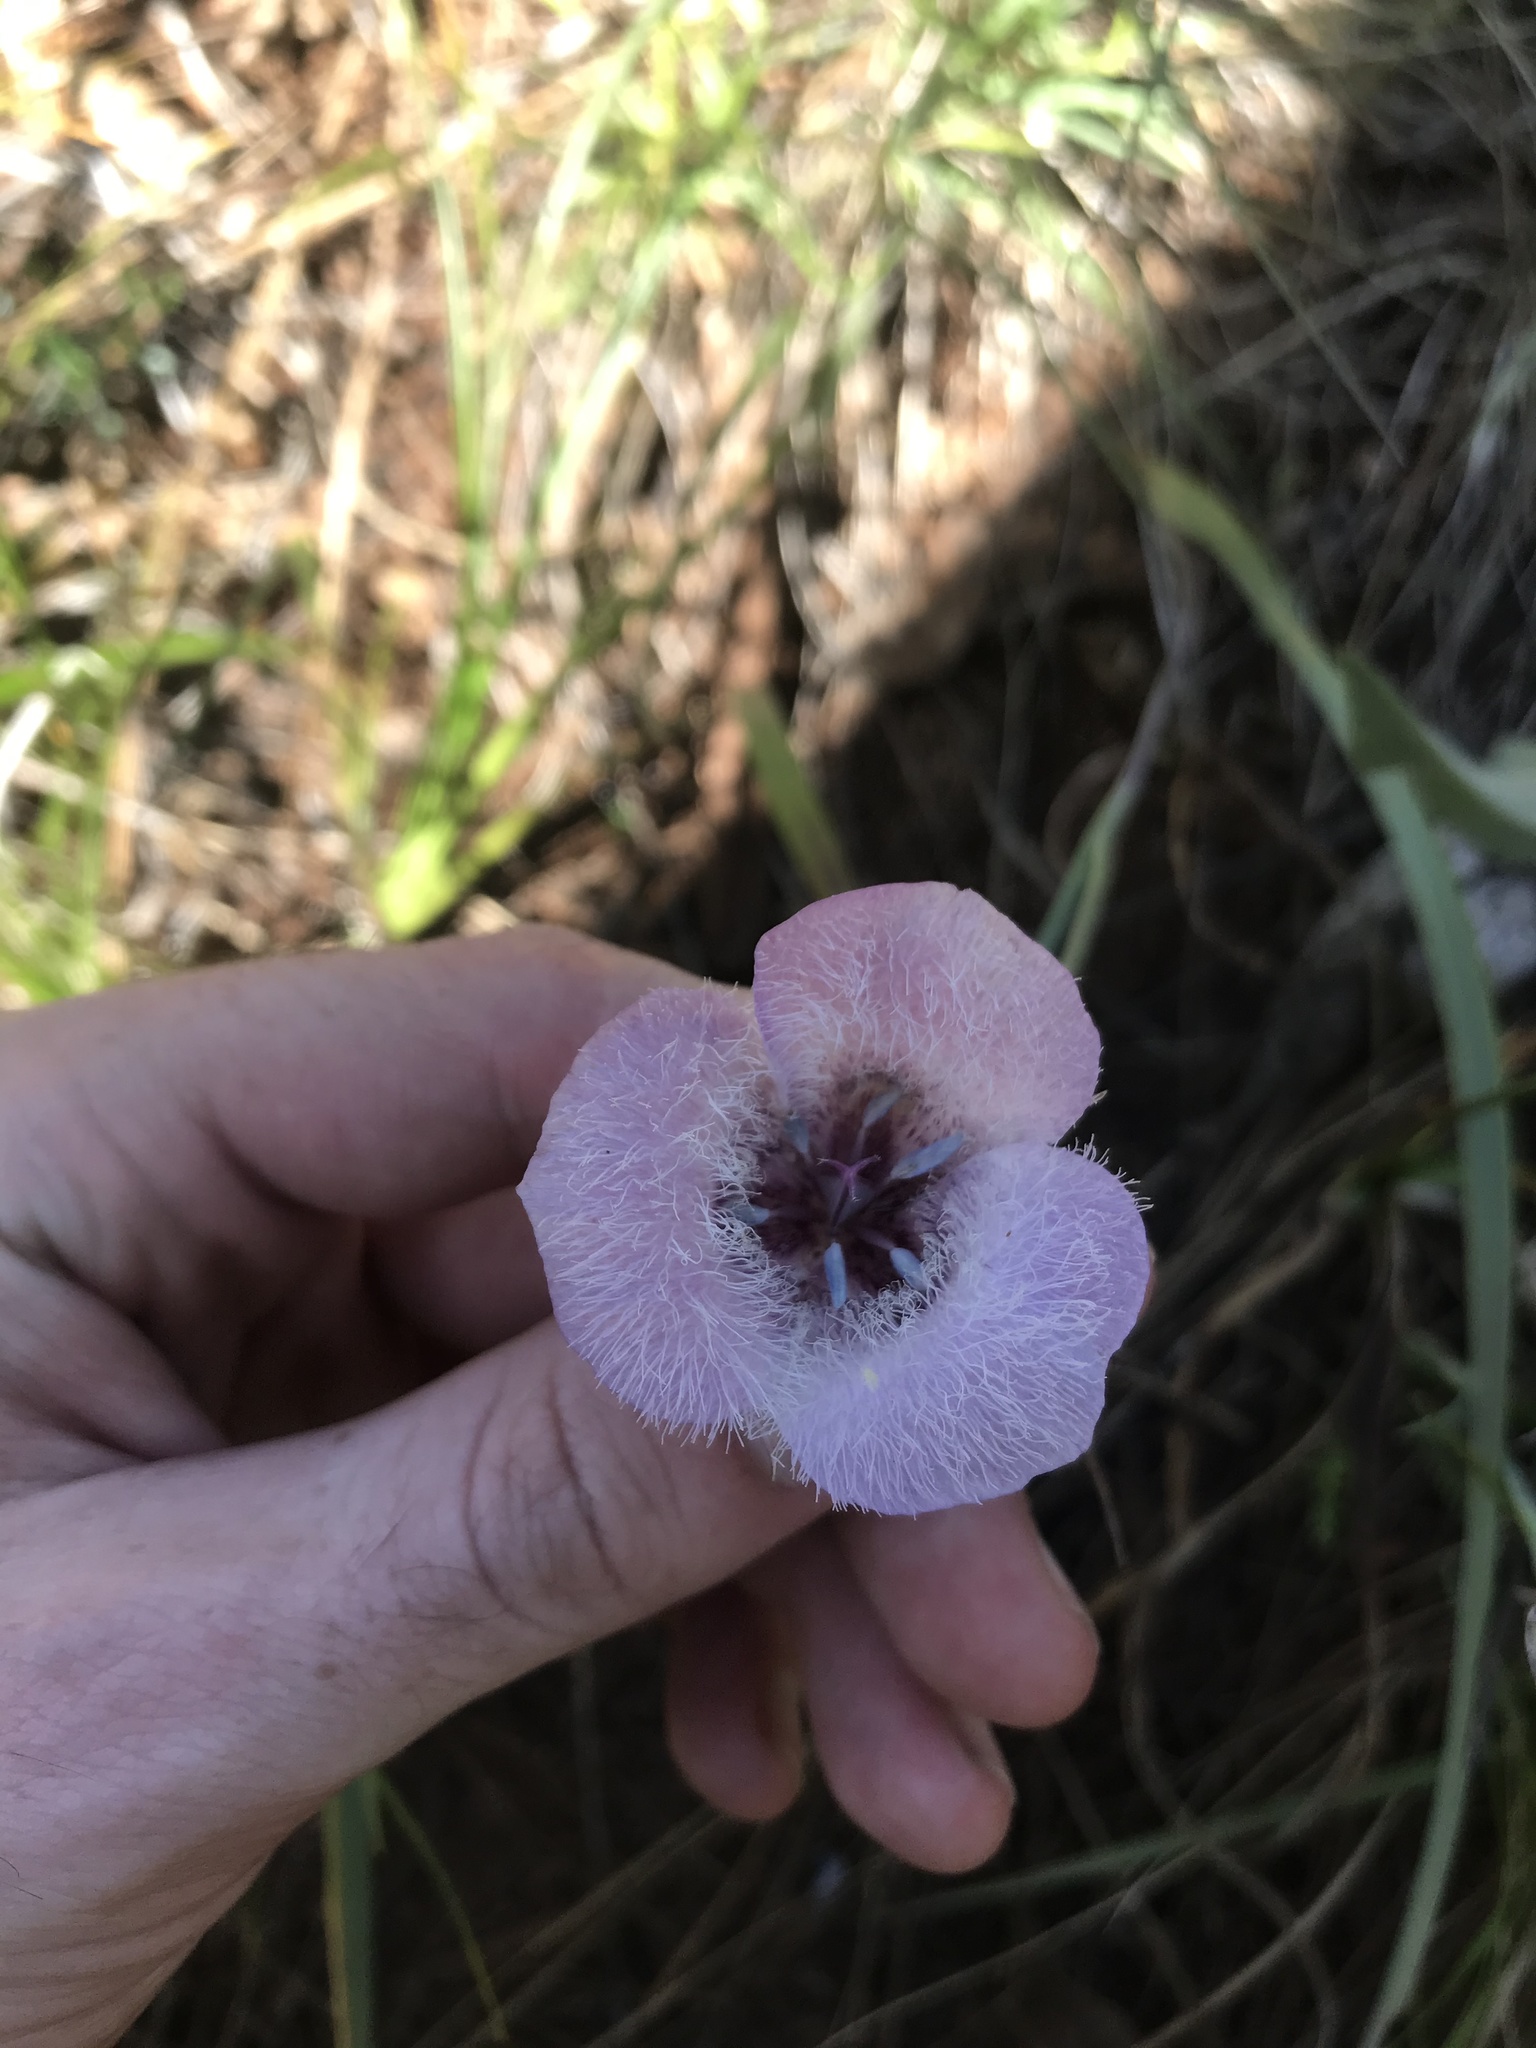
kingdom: Plantae
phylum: Tracheophyta
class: Liliopsida
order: Liliales
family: Liliaceae
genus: Calochortus
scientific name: Calochortus tolmiei
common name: Pussy-ears
